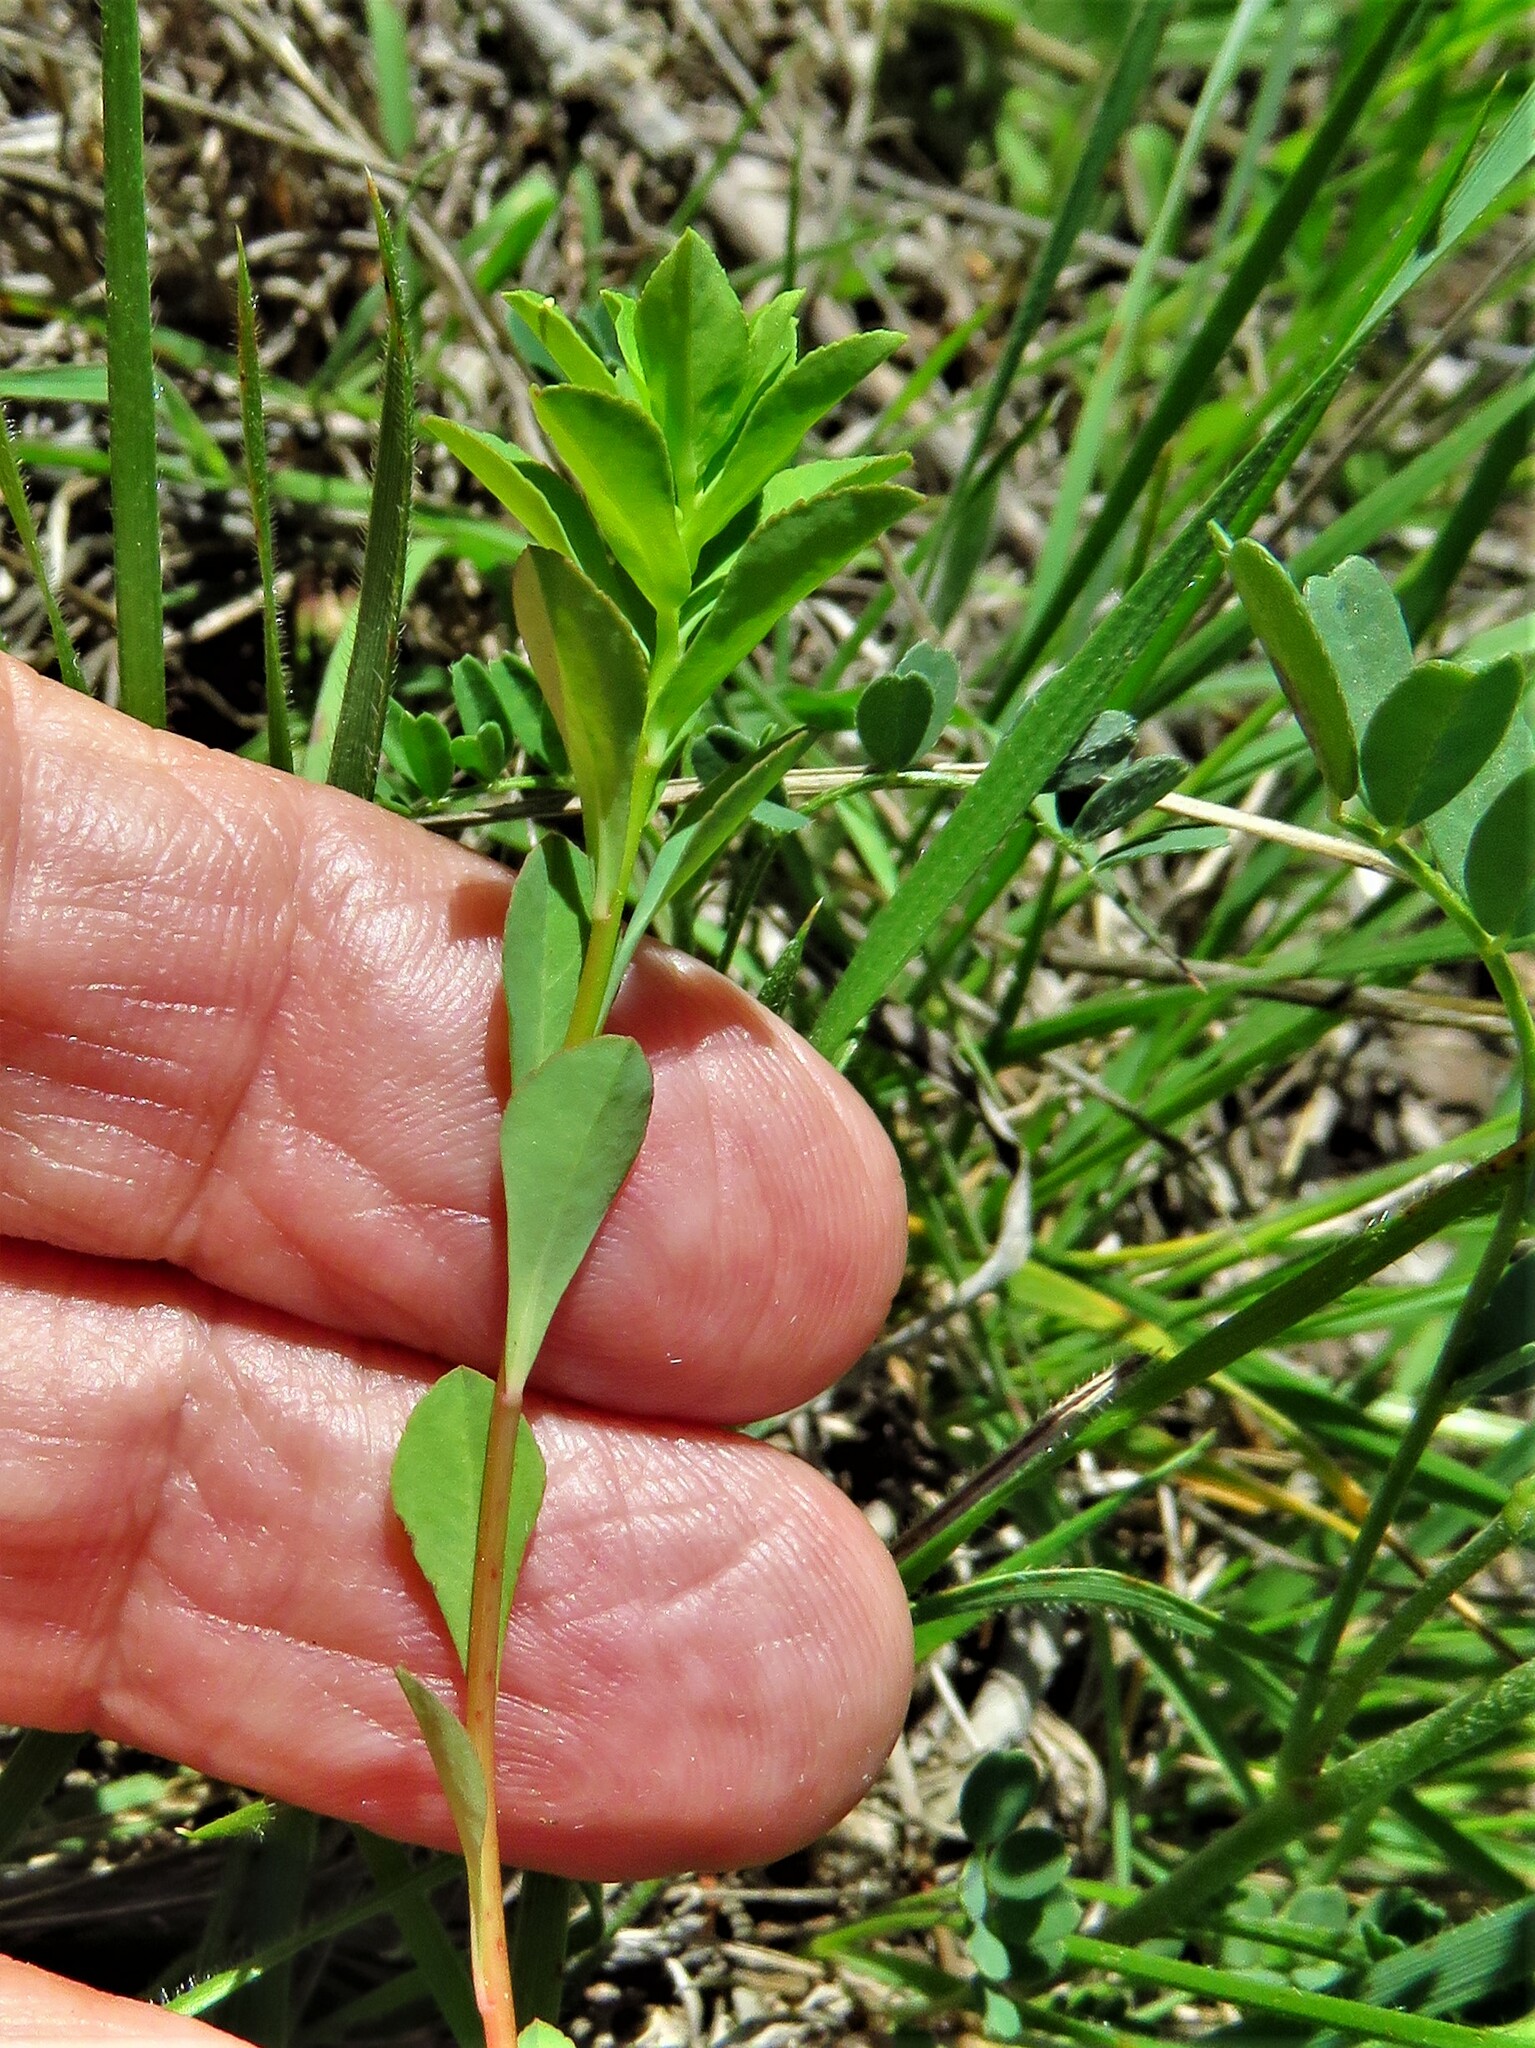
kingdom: Plantae
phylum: Tracheophyta
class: Magnoliopsida
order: Malpighiales
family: Euphorbiaceae
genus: Euphorbia
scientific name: Euphorbia spathulata
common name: Blunt spurge
